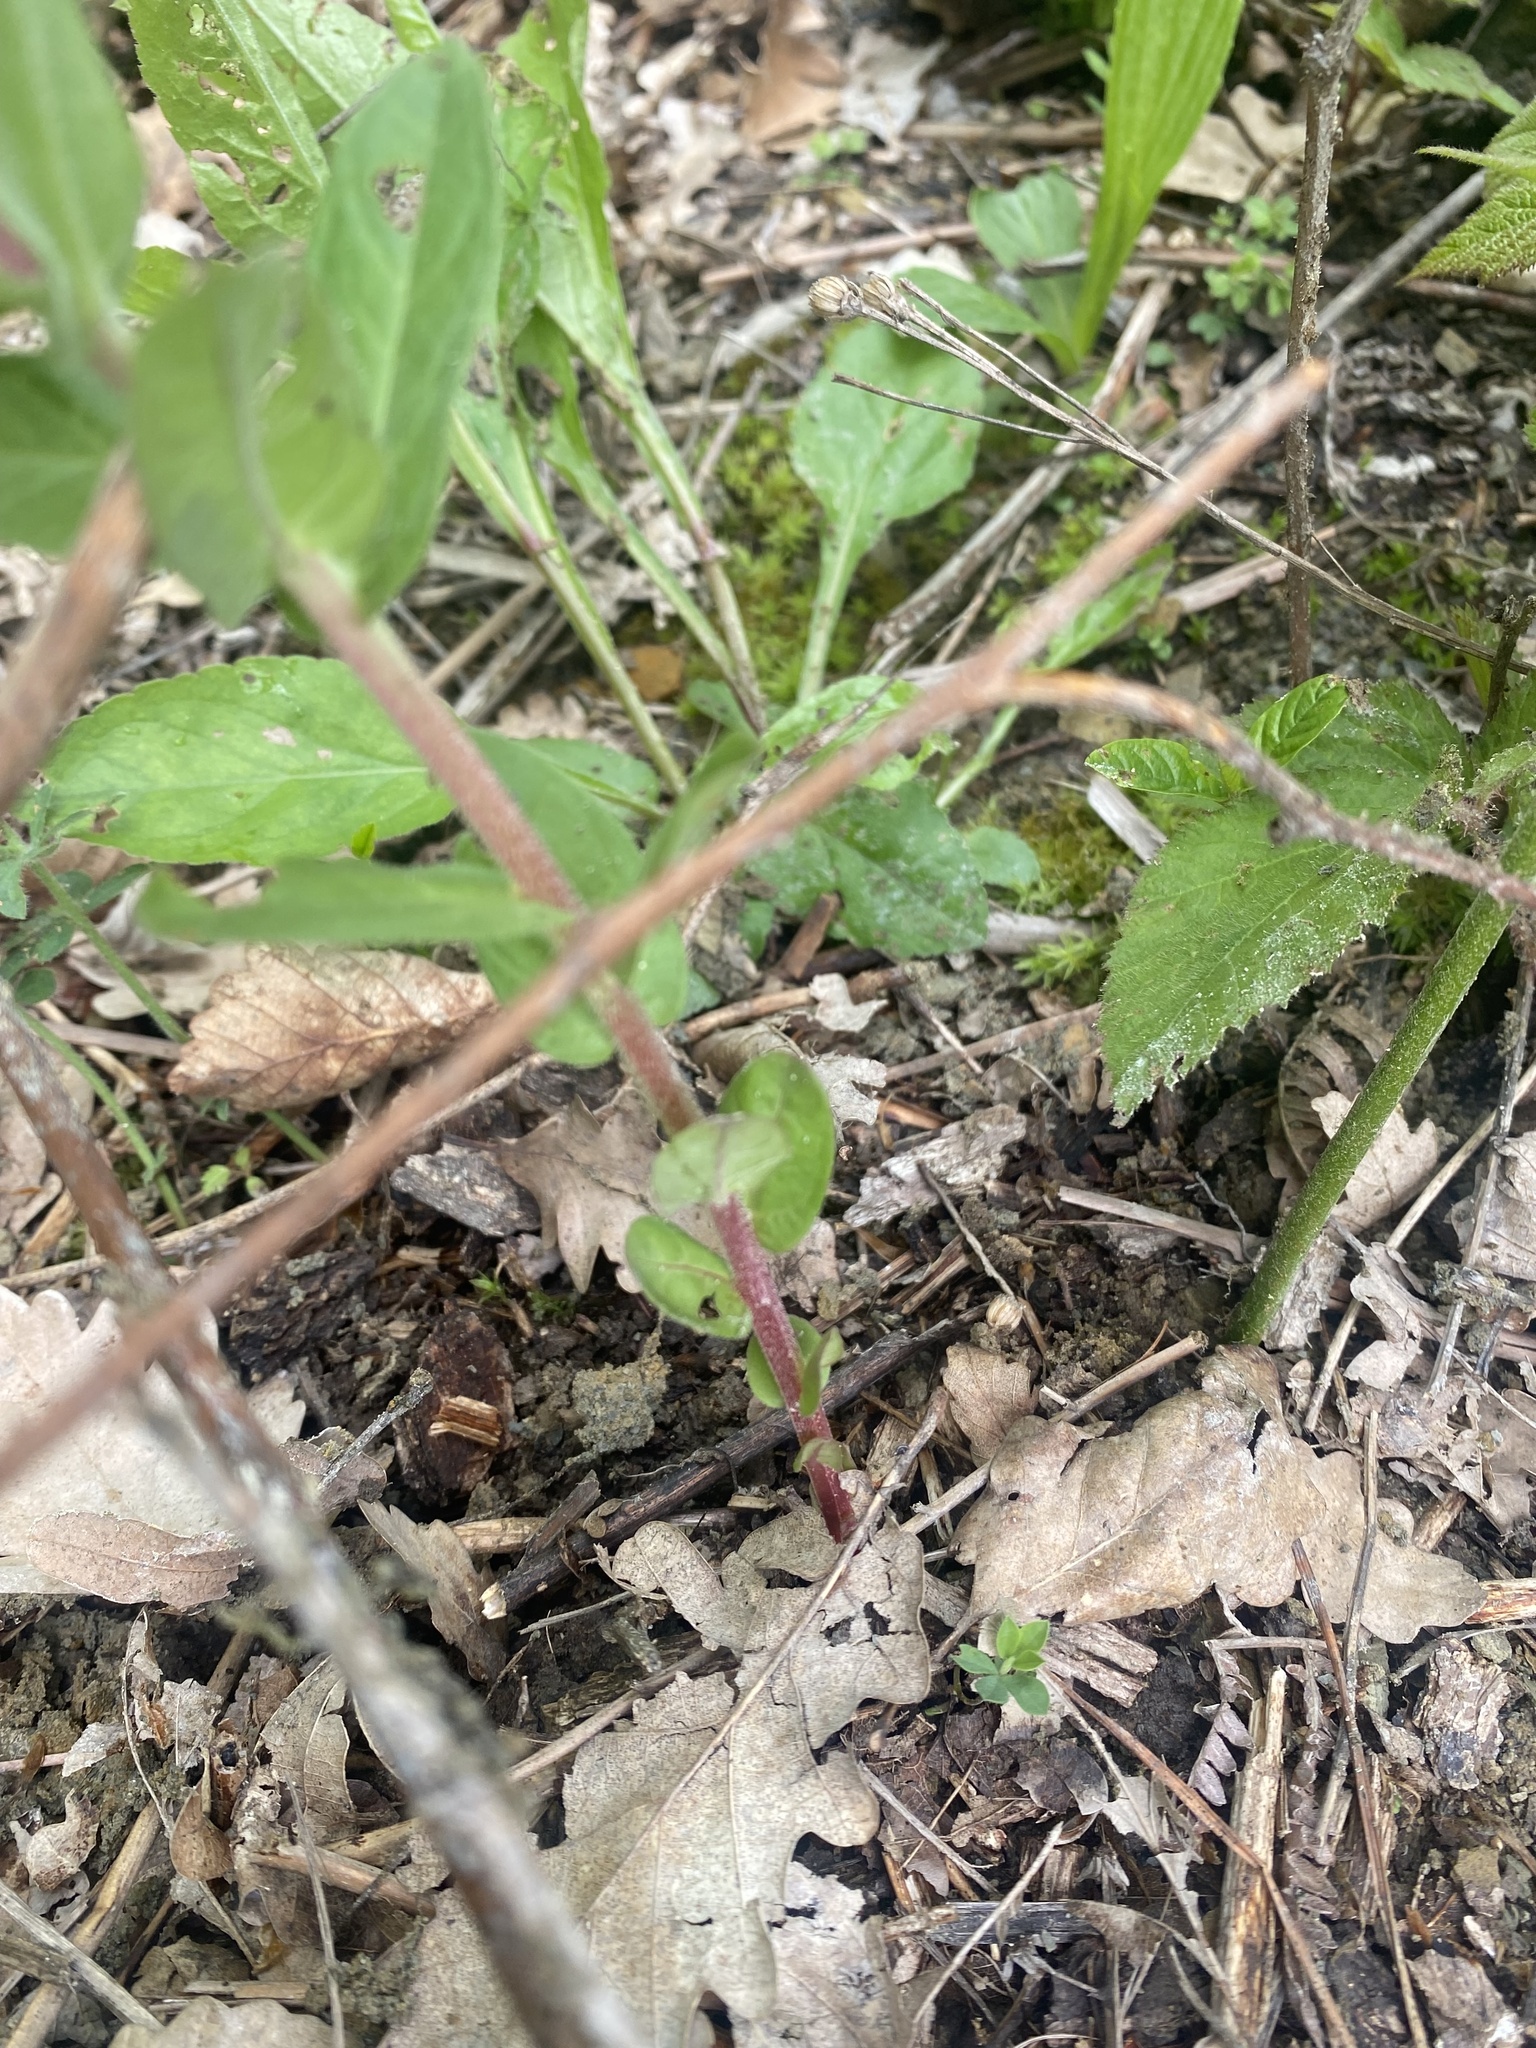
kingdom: Plantae
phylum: Tracheophyta
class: Magnoliopsida
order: Myrtales
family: Lythraceae
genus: Lythrum
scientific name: Lythrum salicaria
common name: Purple loosestrife
